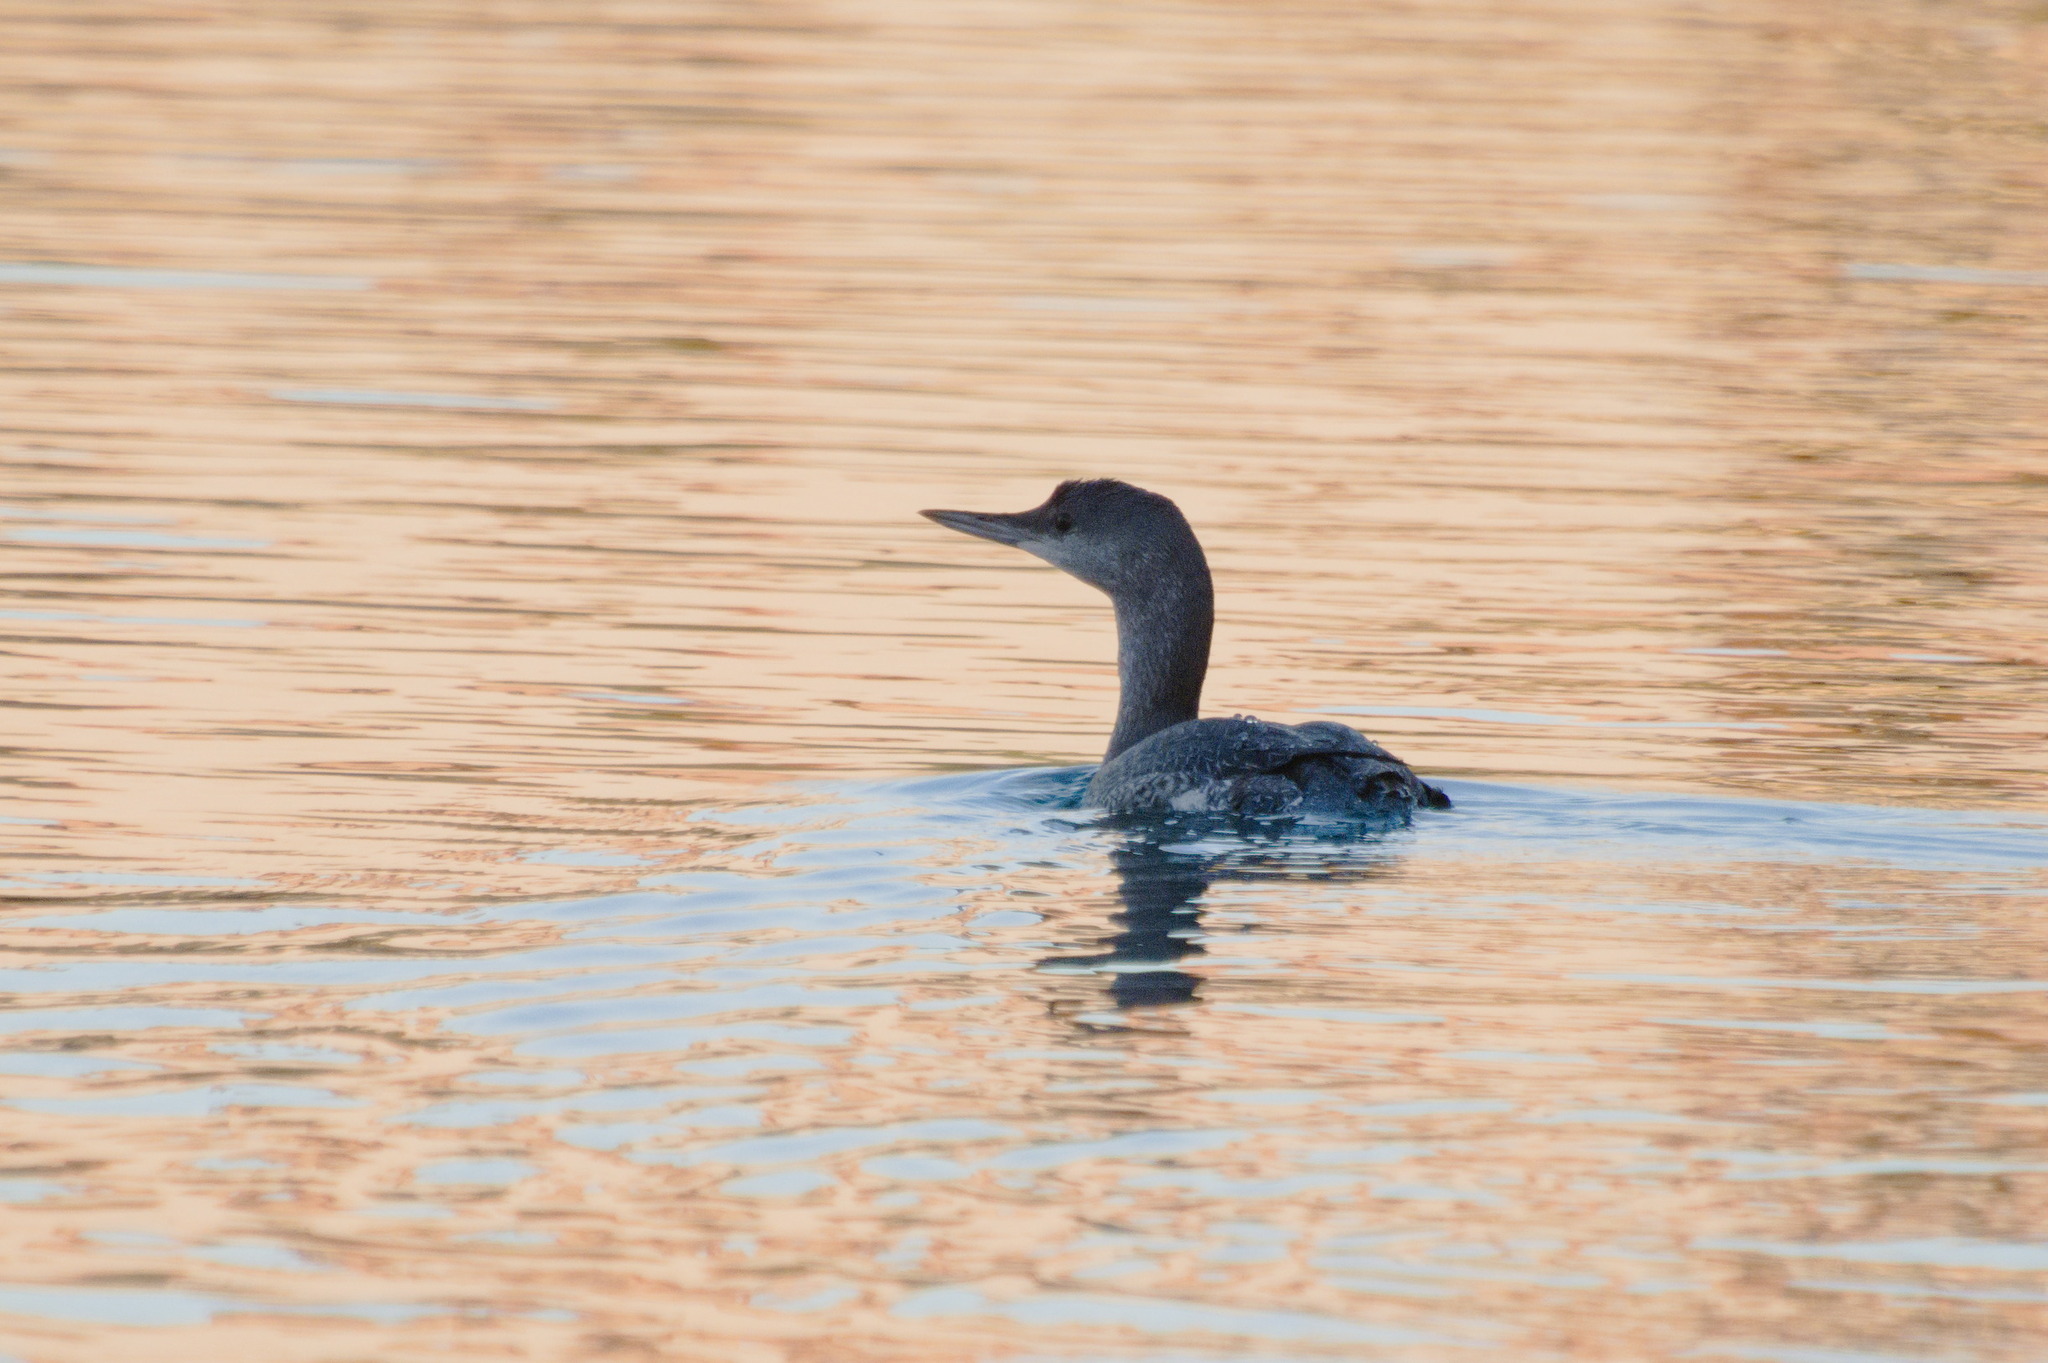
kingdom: Animalia
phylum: Chordata
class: Aves
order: Gaviiformes
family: Gaviidae
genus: Gavia
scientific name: Gavia stellata
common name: Red-throated loon
